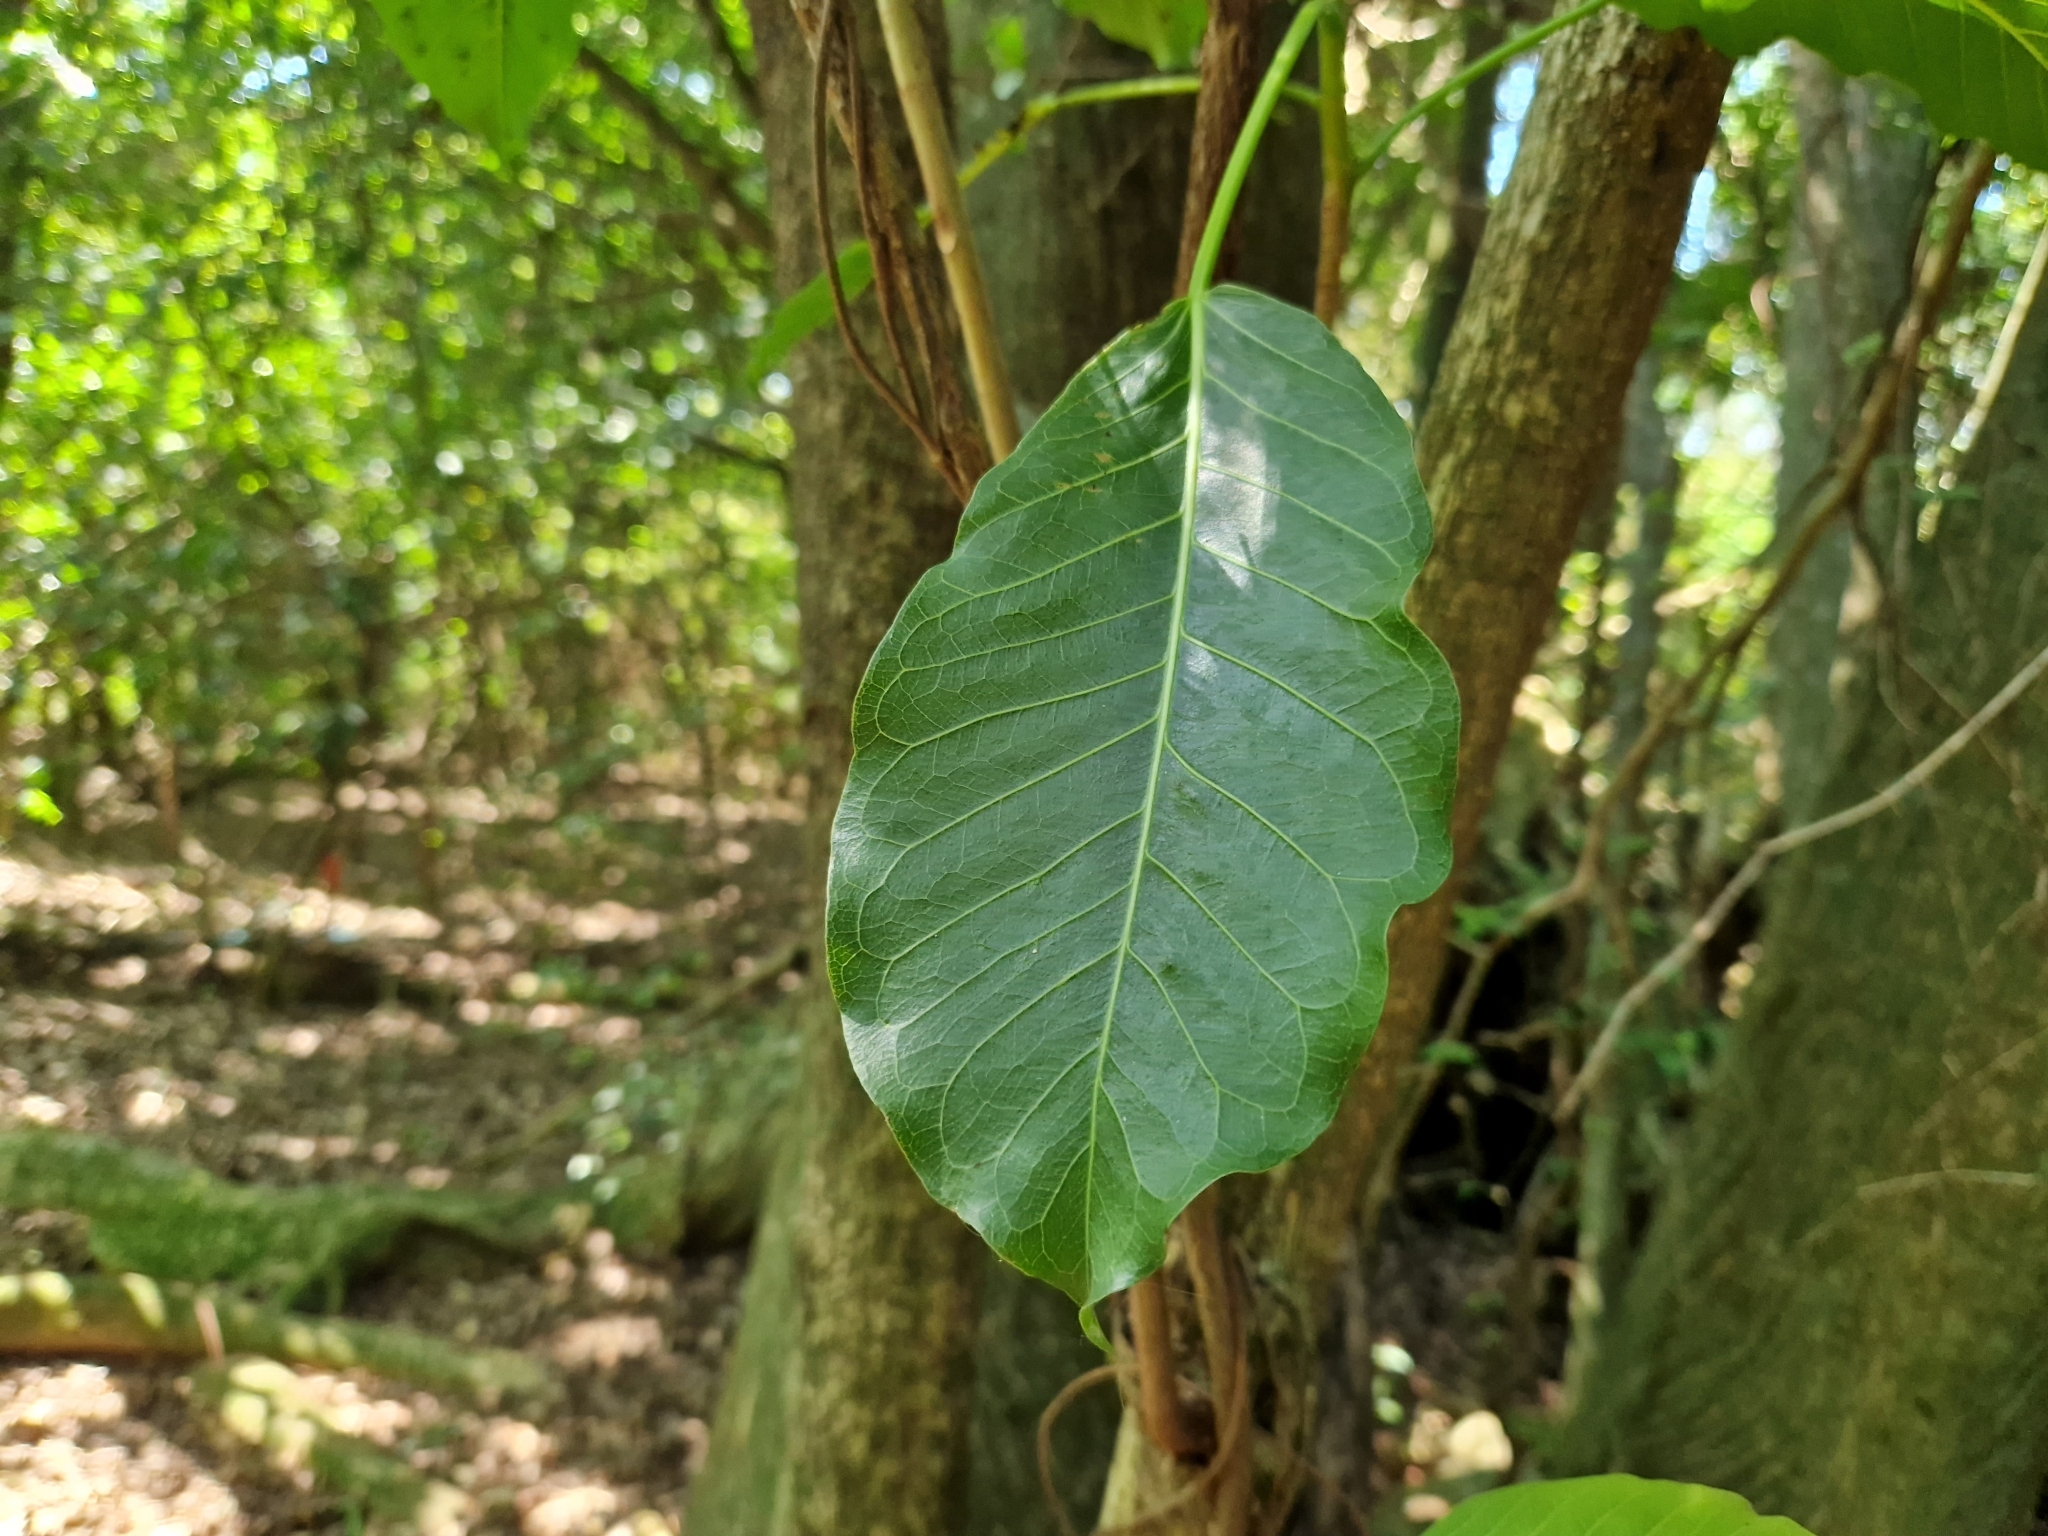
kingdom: Plantae
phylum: Tracheophyta
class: Magnoliopsida
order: Rosales
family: Moraceae
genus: Ficus
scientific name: Ficus luschnathiana
